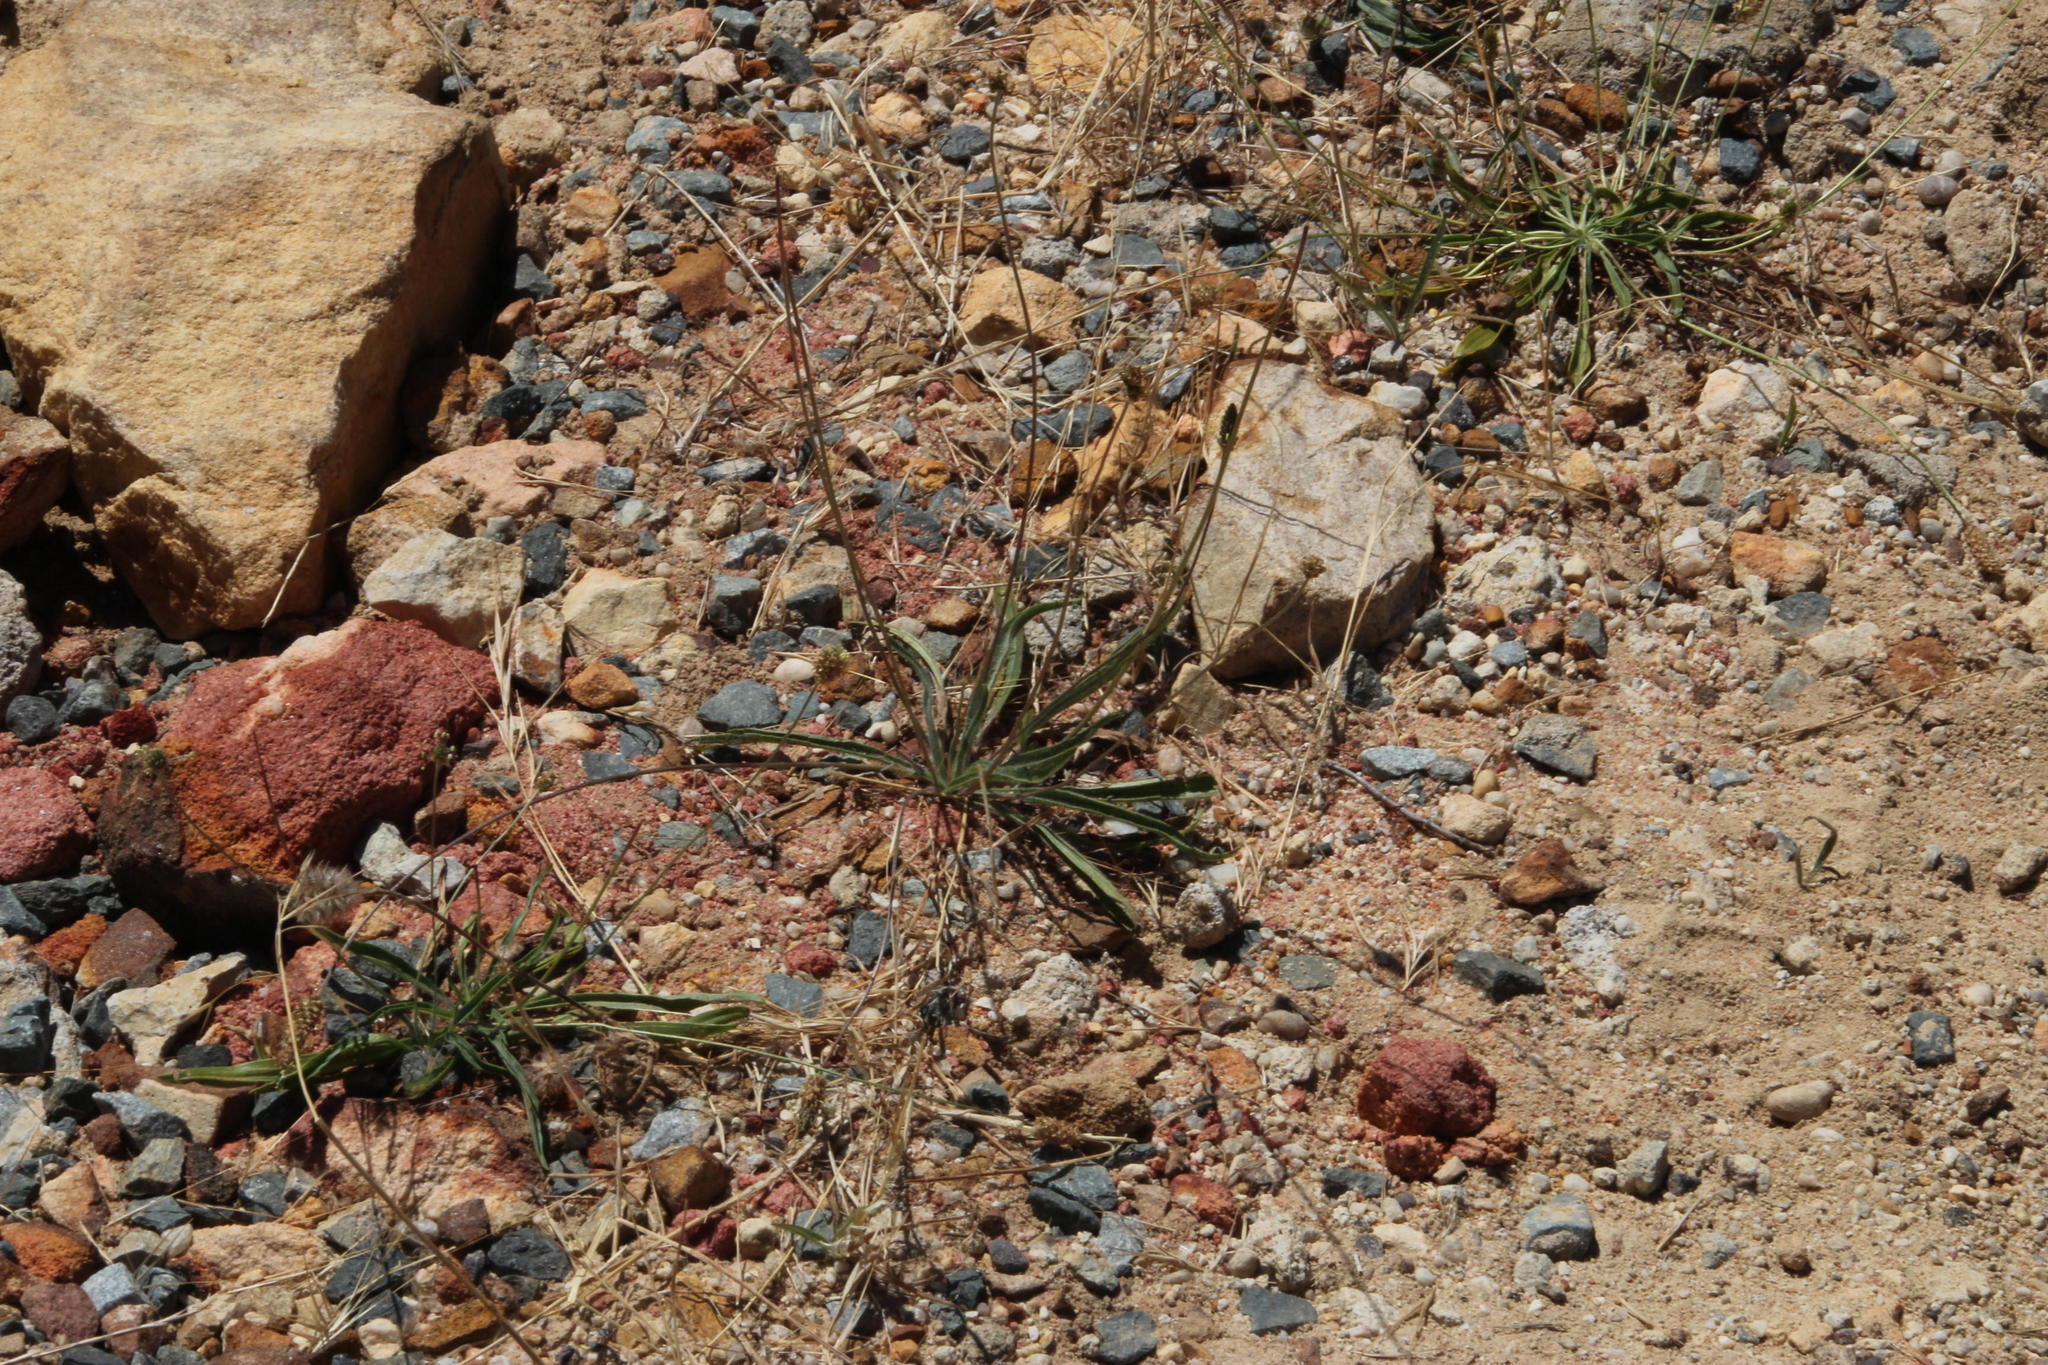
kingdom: Plantae
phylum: Tracheophyta
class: Magnoliopsida
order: Lamiales
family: Plantaginaceae
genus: Plantago
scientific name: Plantago lanceolata
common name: Ribwort plantain
